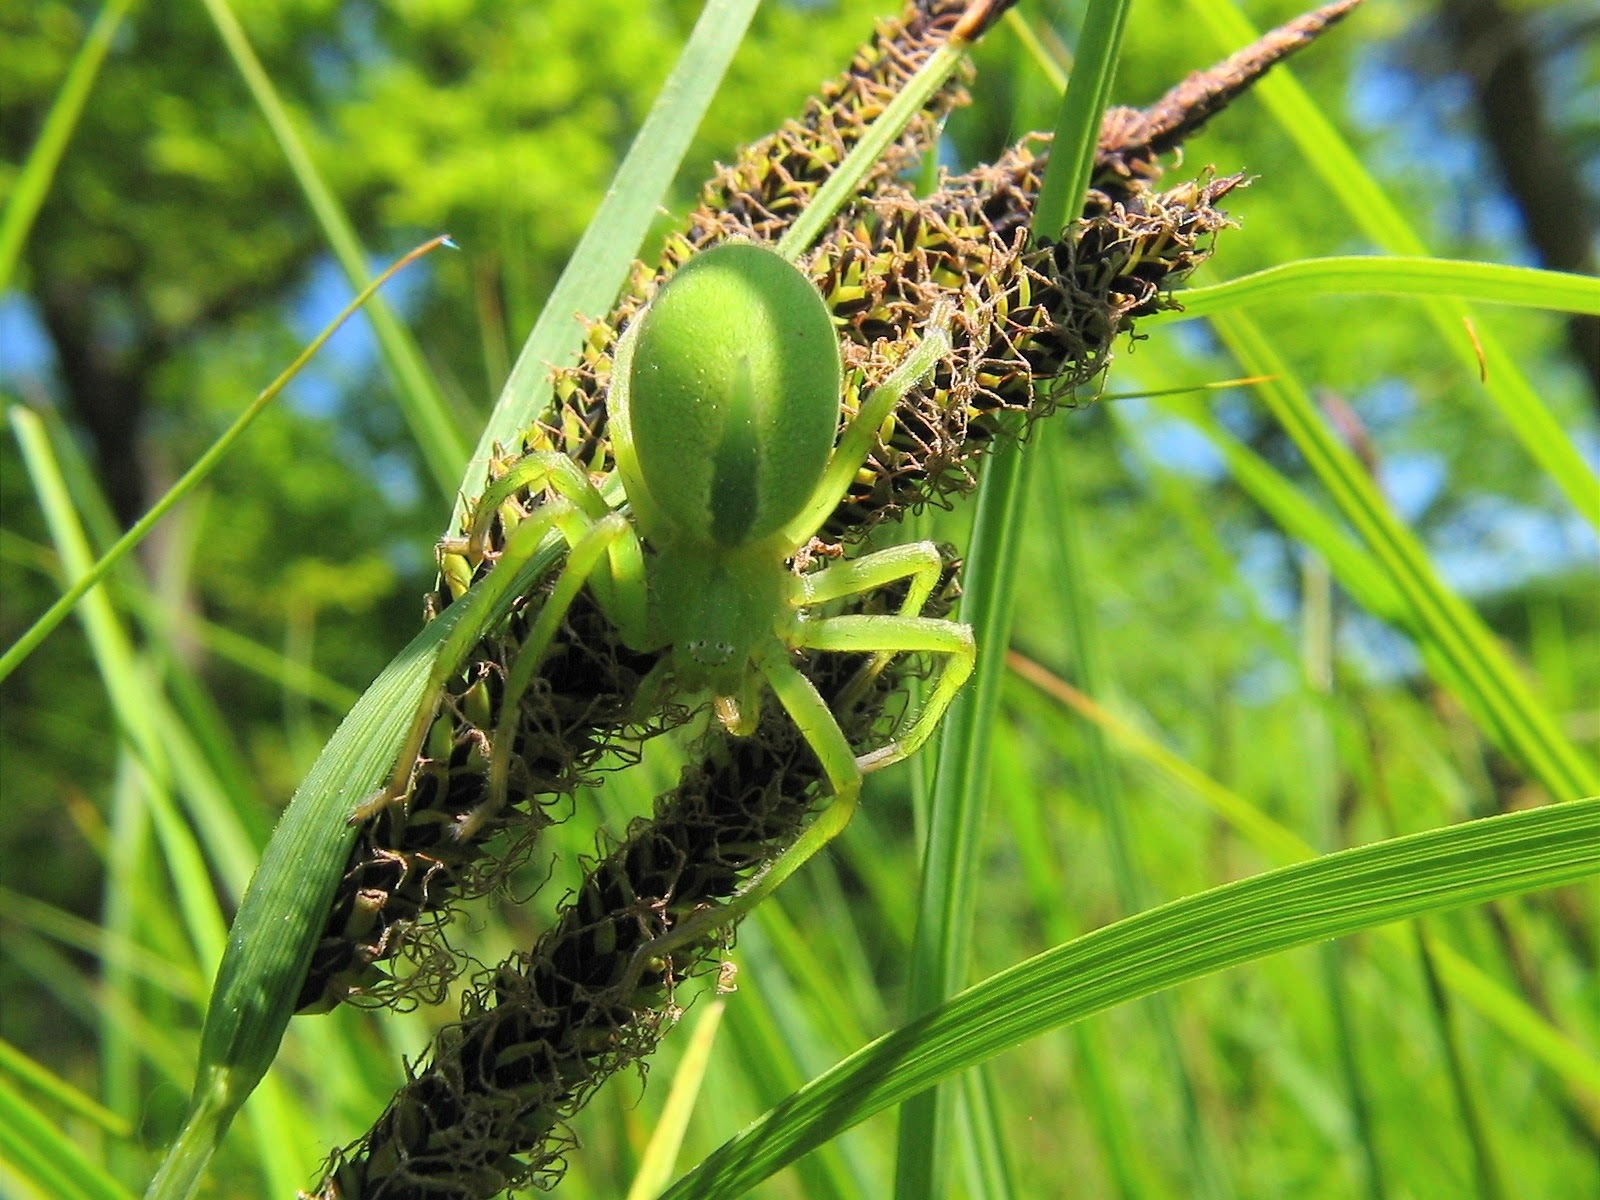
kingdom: Animalia
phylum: Arthropoda
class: Arachnida
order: Araneae
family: Sparassidae
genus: Micrommata
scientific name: Micrommata virescens
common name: Green spider
